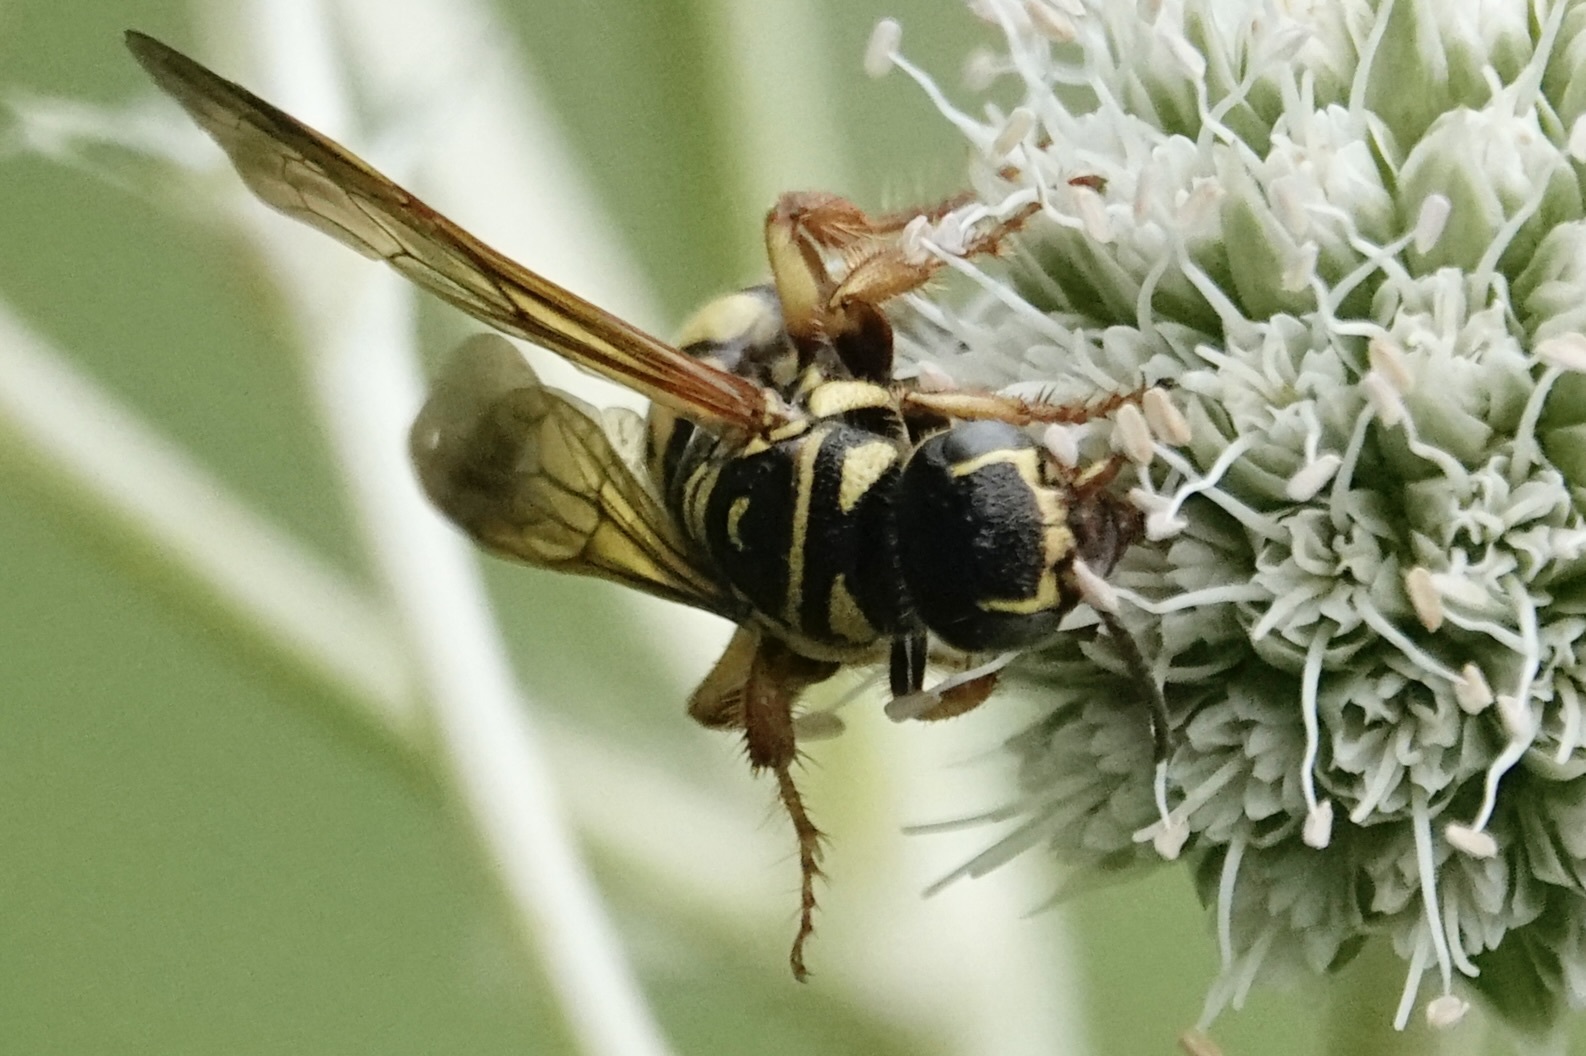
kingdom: Animalia
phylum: Arthropoda
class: Insecta
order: Hymenoptera
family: Tiphiidae
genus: Myzinum
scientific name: Myzinum quinquecinctum
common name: Five-banded thynnid wasp
